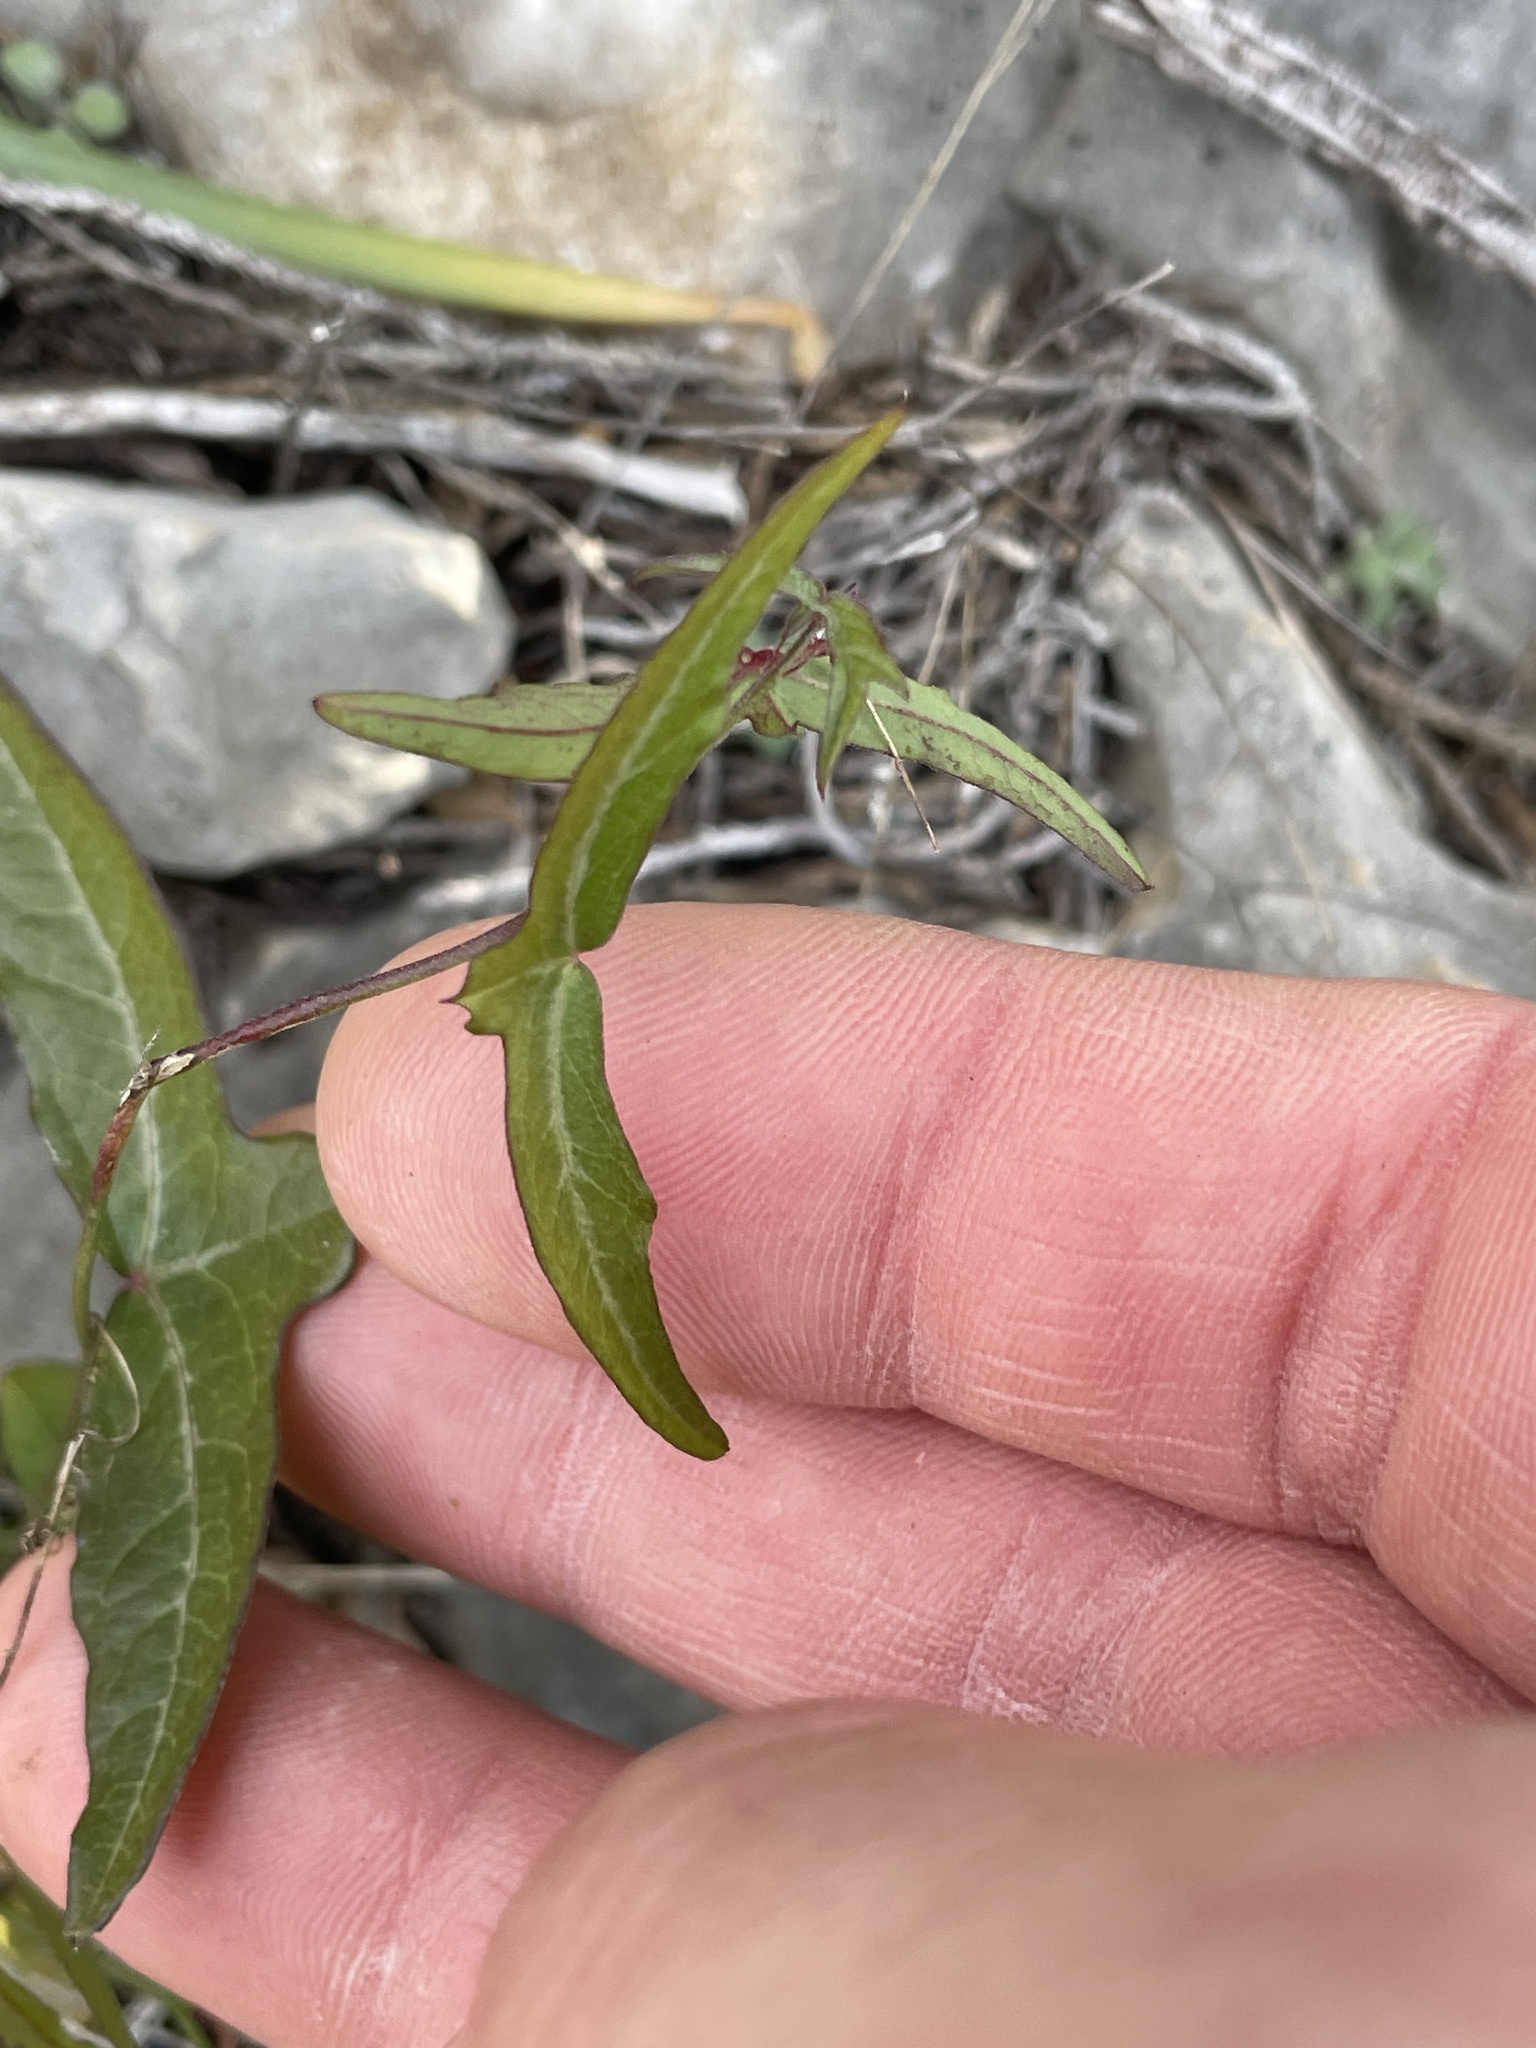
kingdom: Plantae
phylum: Tracheophyta
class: Magnoliopsida
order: Malpighiales
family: Passifloraceae
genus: Passiflora
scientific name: Passiflora tenuiloba
